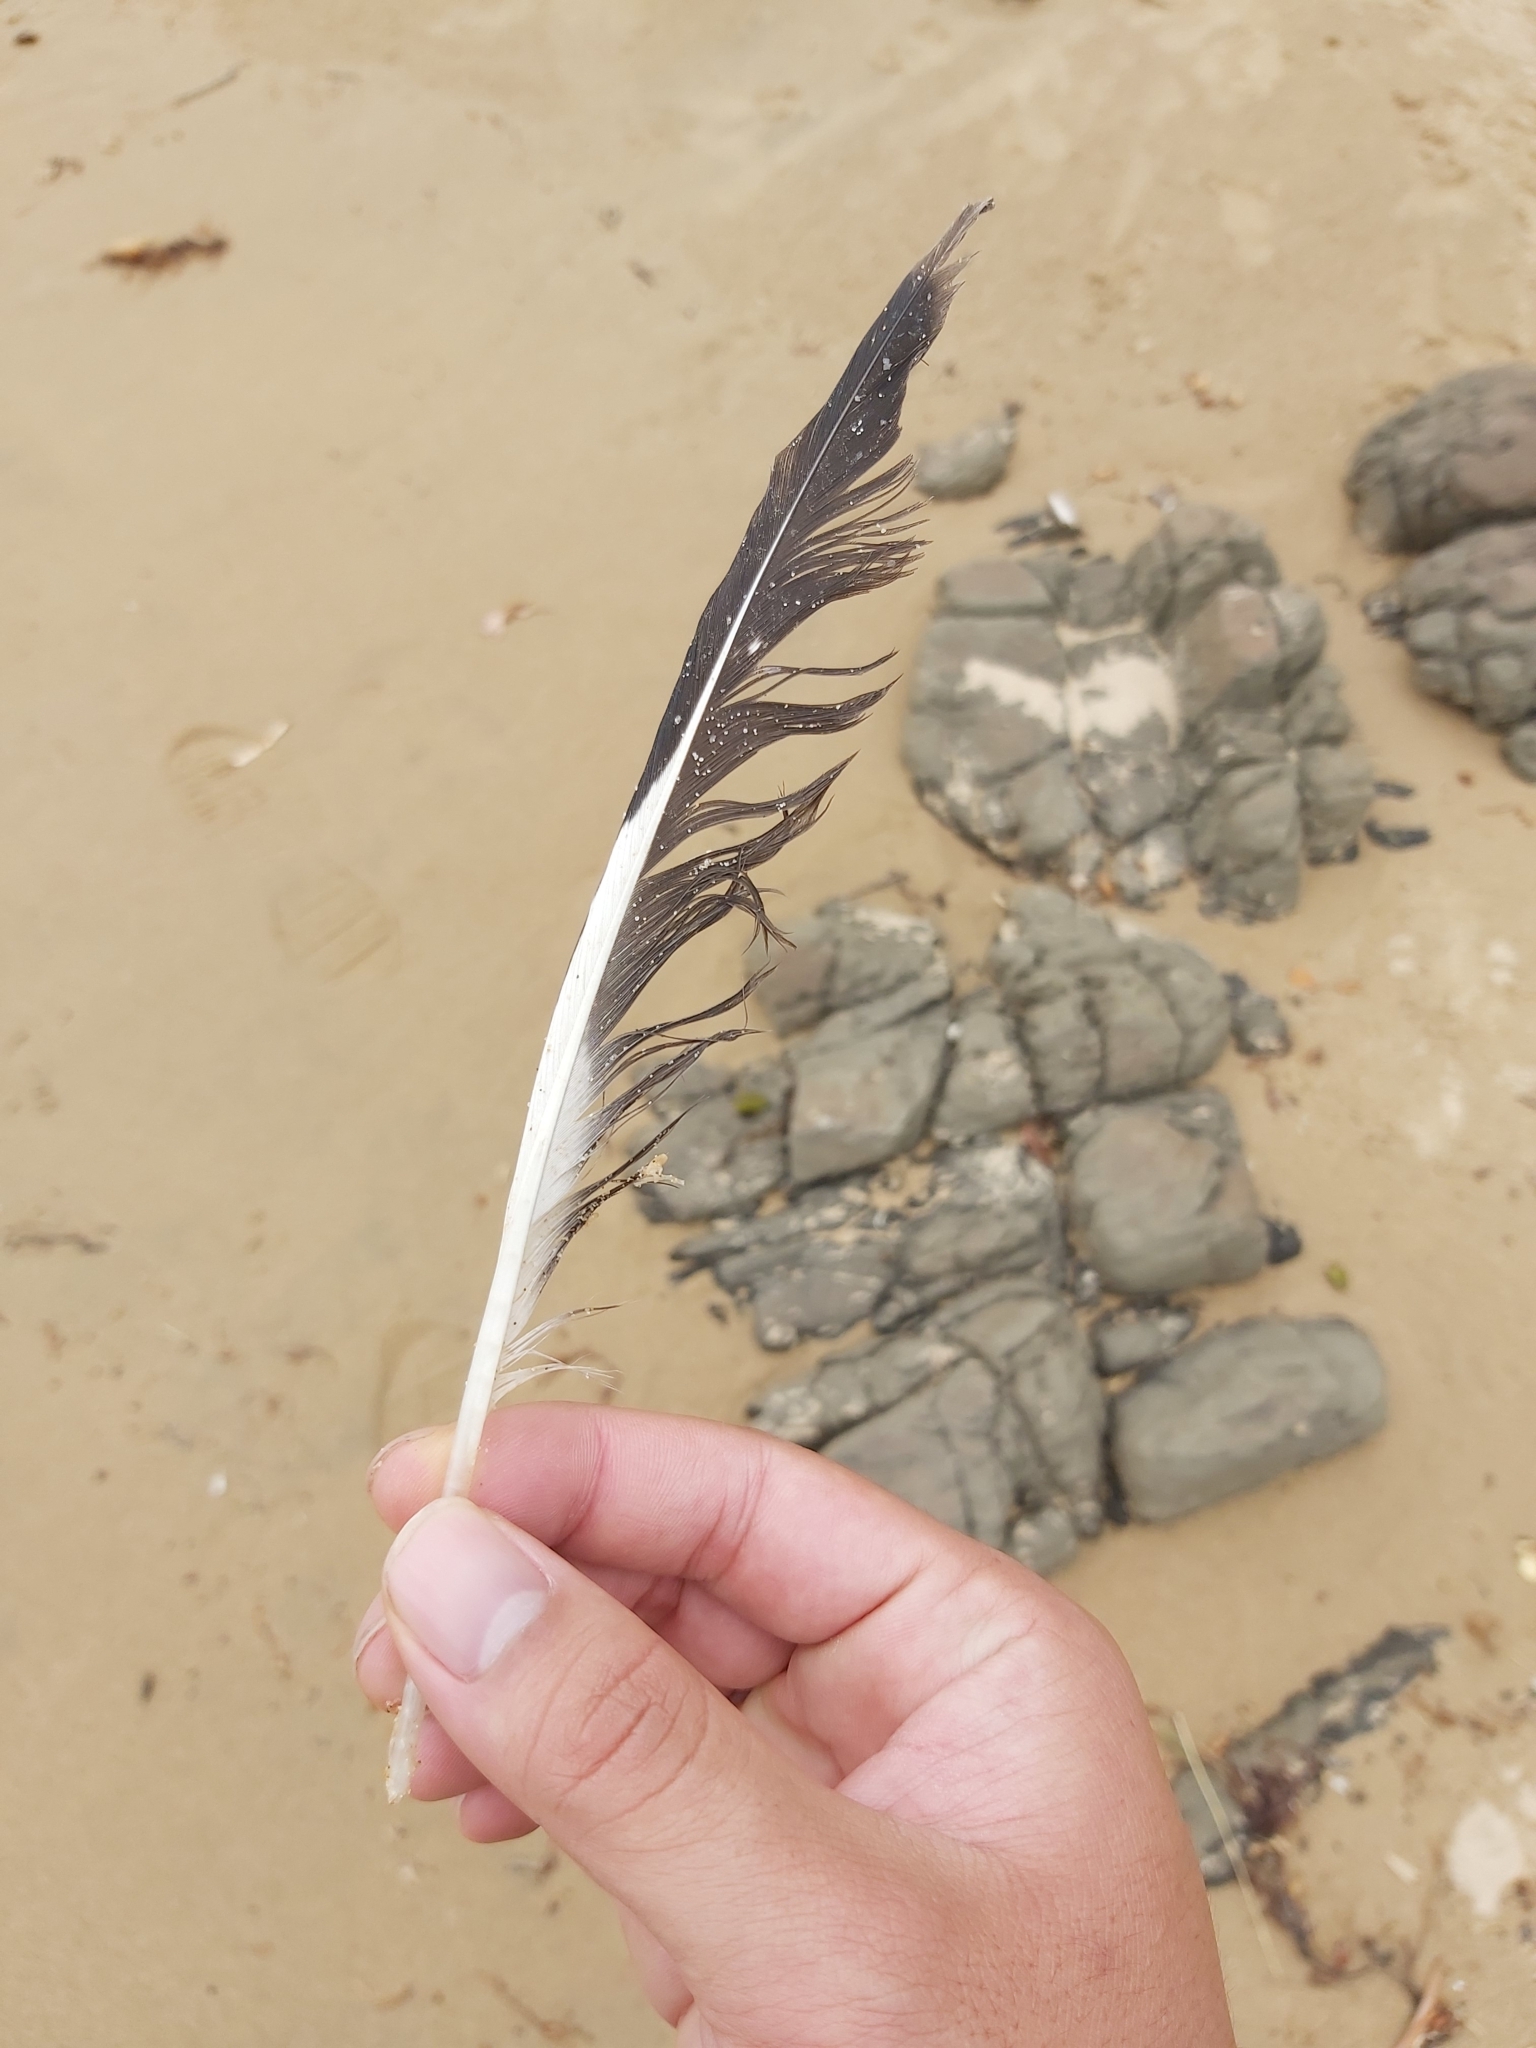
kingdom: Animalia
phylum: Chordata
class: Aves
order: Charadriiformes
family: Laridae
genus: Chroicocephalus
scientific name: Chroicocephalus novaehollandiae
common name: Silver gull
